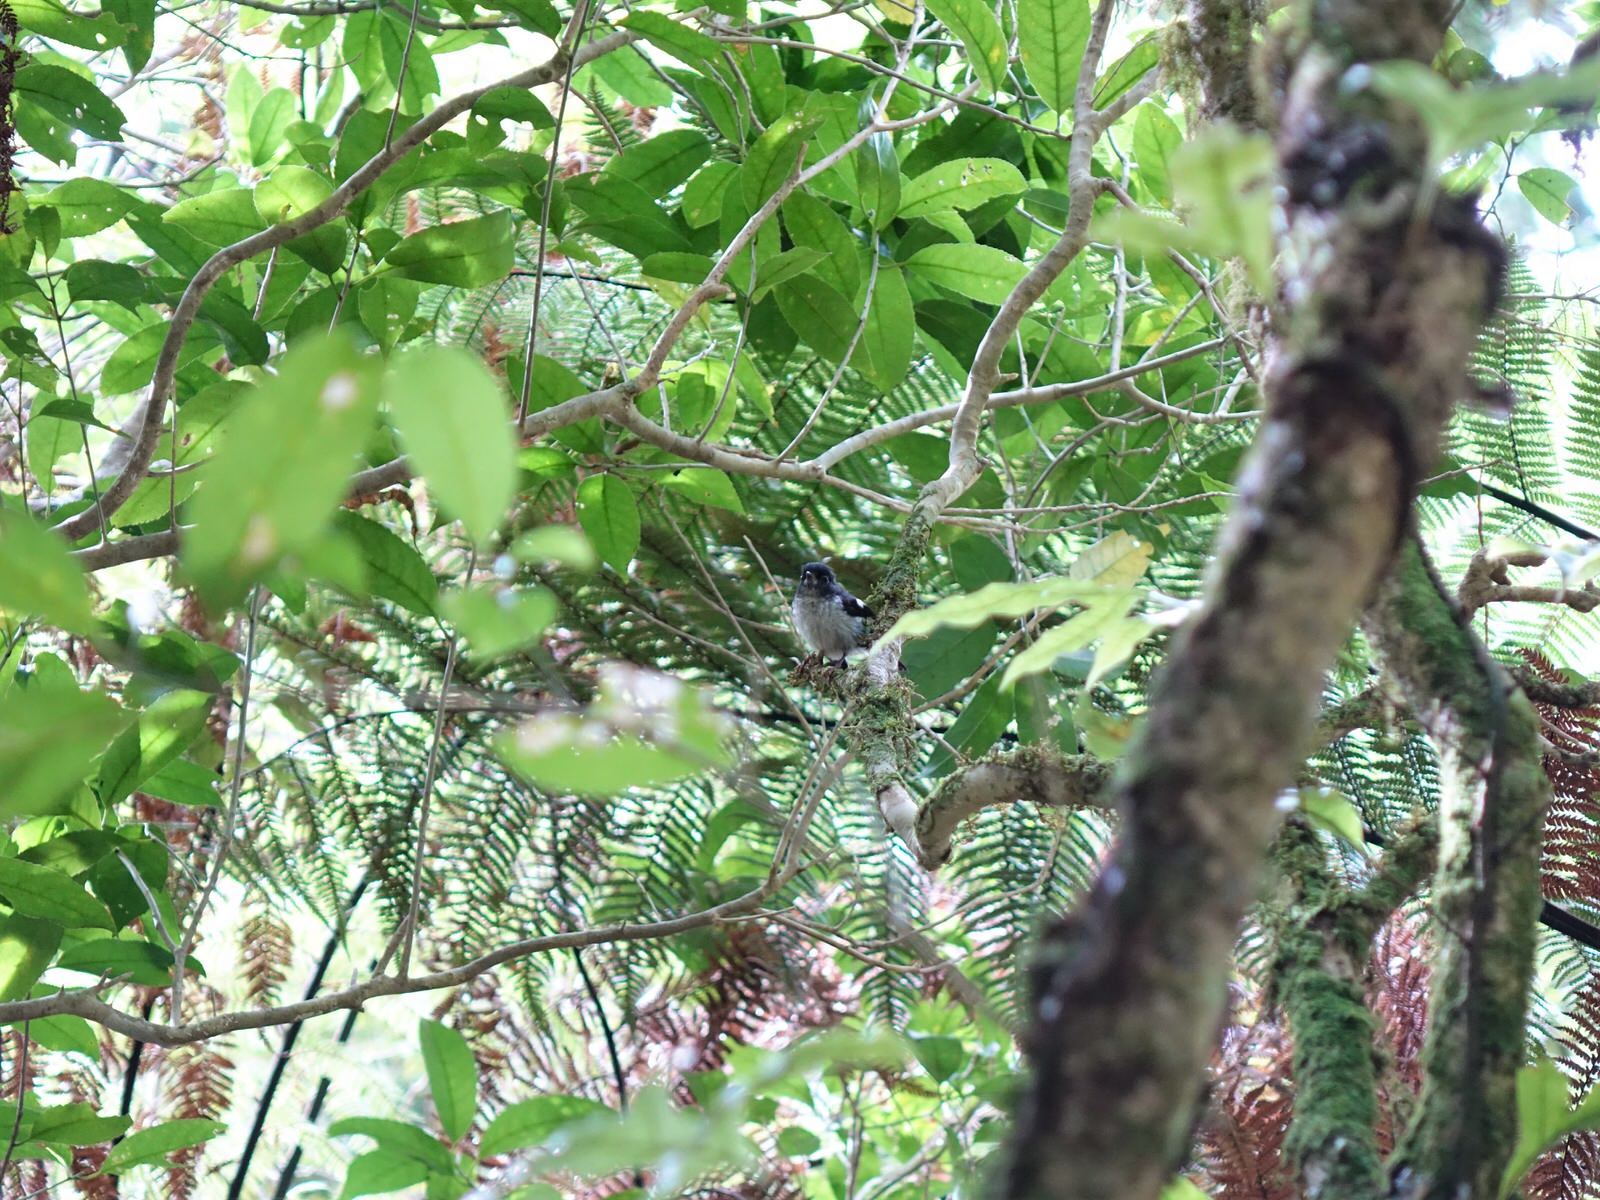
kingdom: Animalia
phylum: Chordata
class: Aves
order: Passeriformes
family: Petroicidae
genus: Petroica
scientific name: Petroica macrocephala
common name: Tomtit
